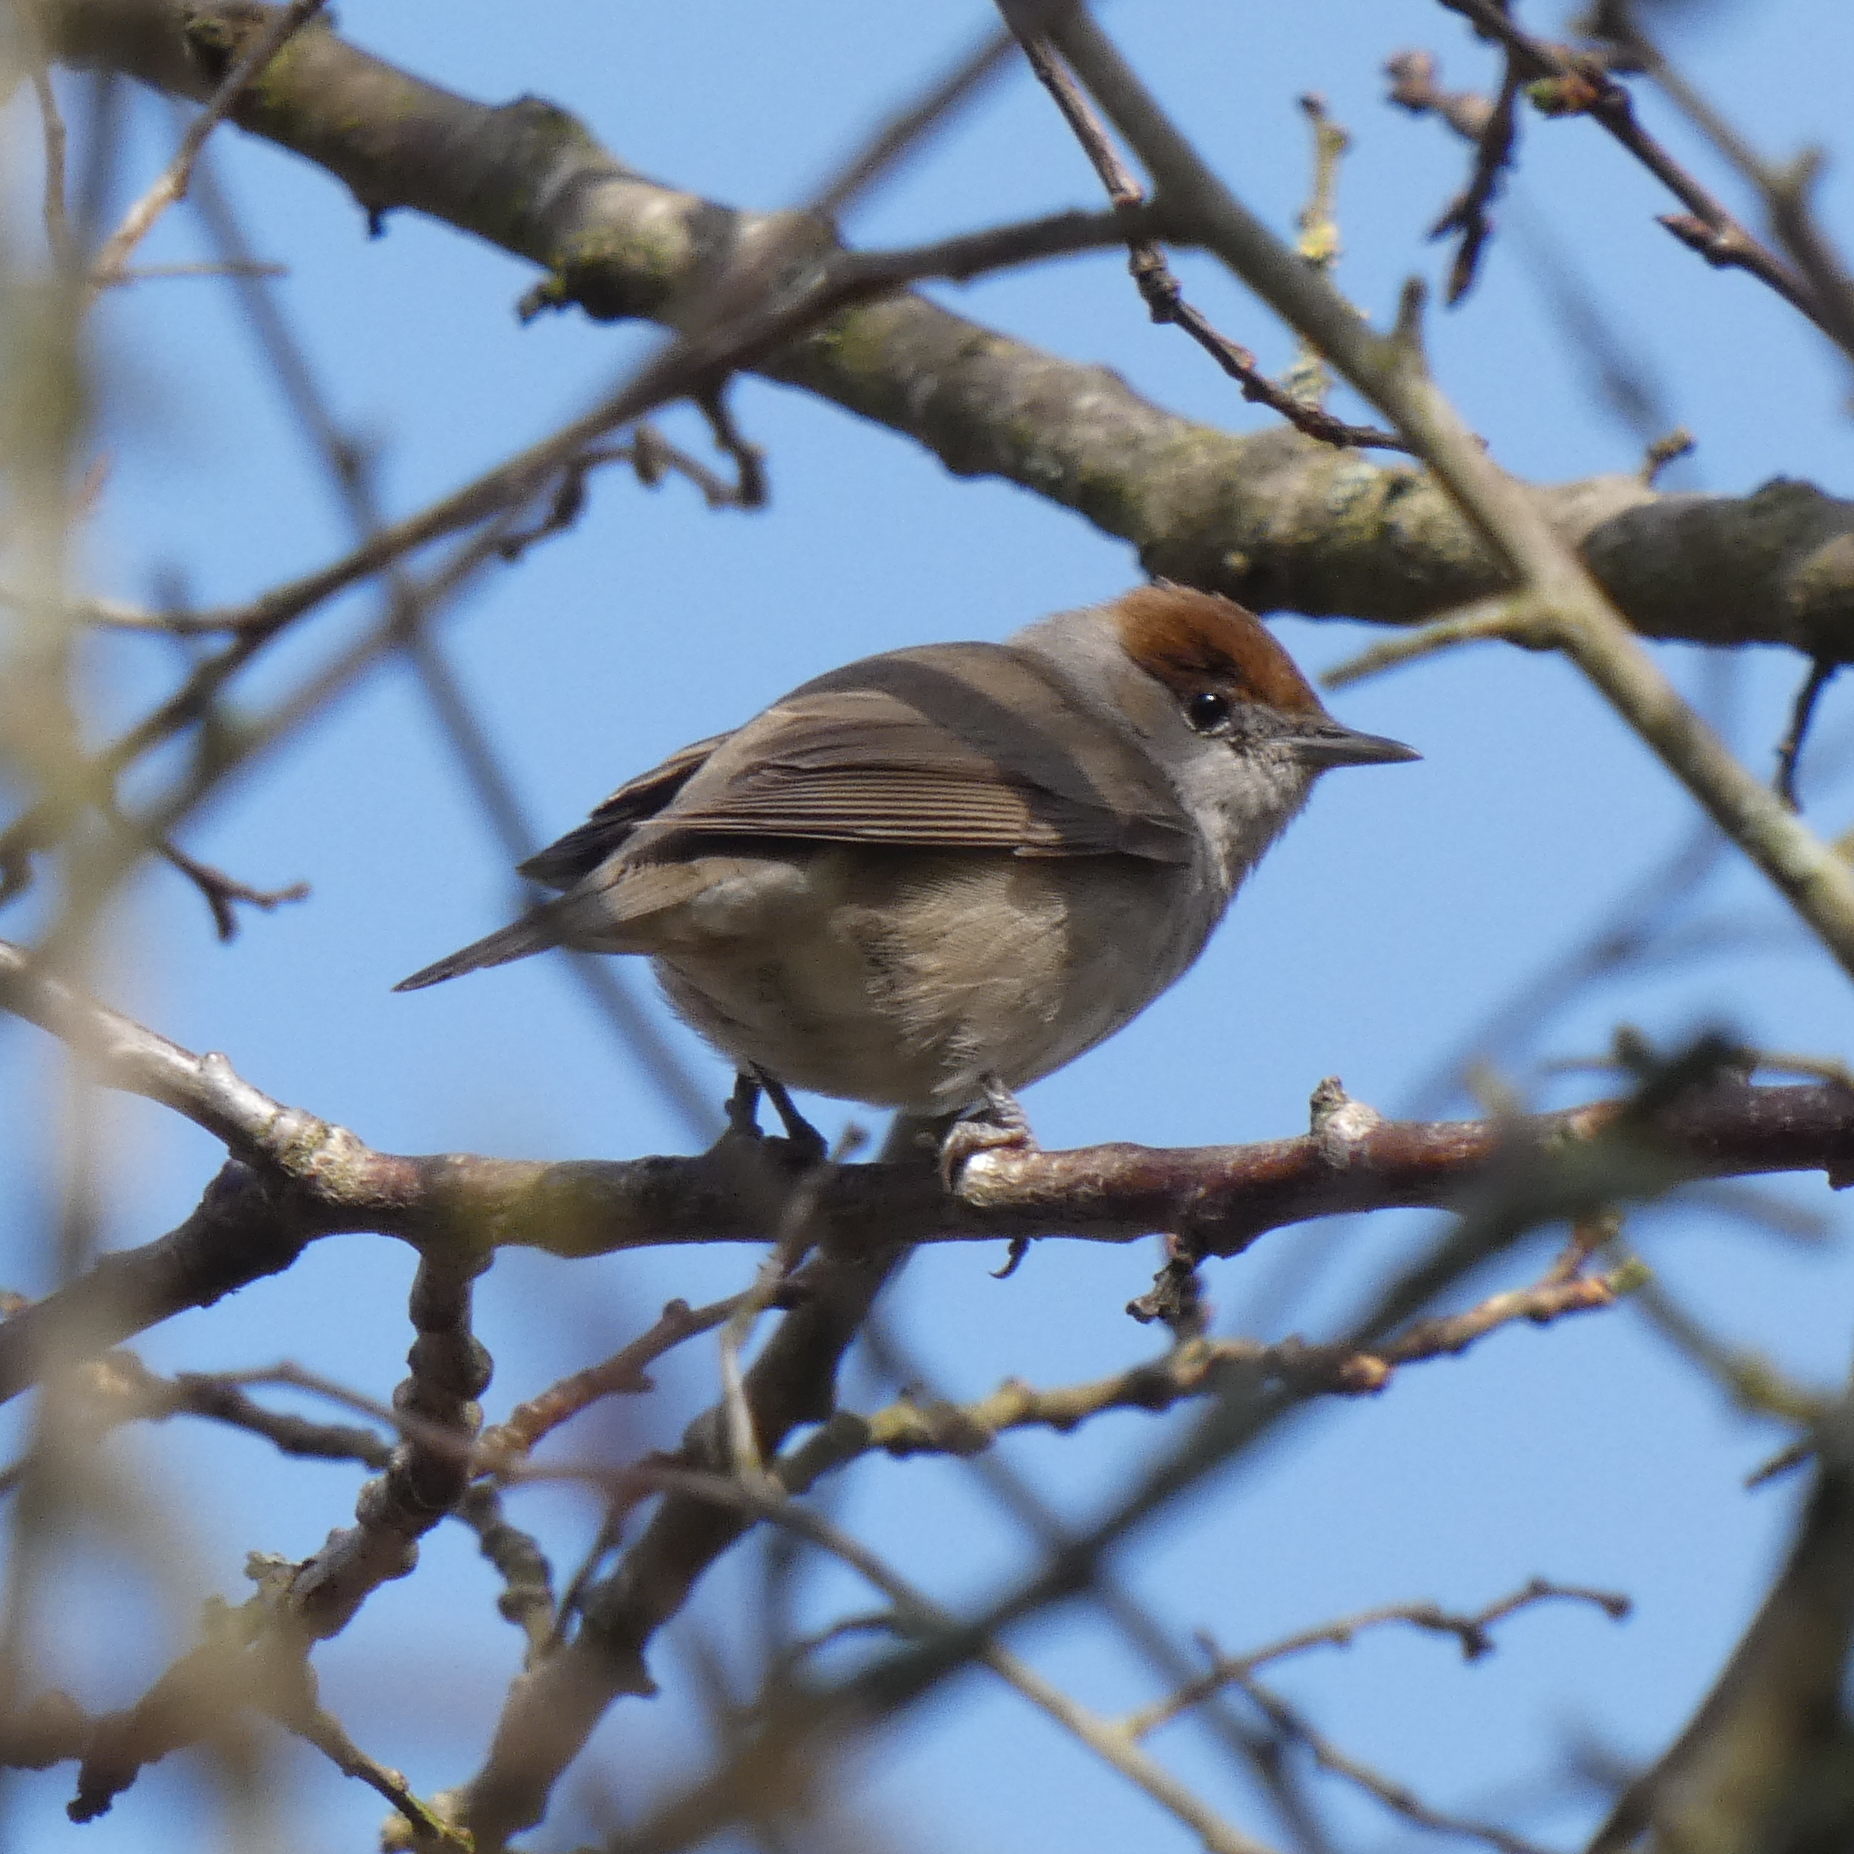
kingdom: Animalia
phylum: Chordata
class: Aves
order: Passeriformes
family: Sylviidae
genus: Sylvia
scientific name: Sylvia atricapilla
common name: Eurasian blackcap
